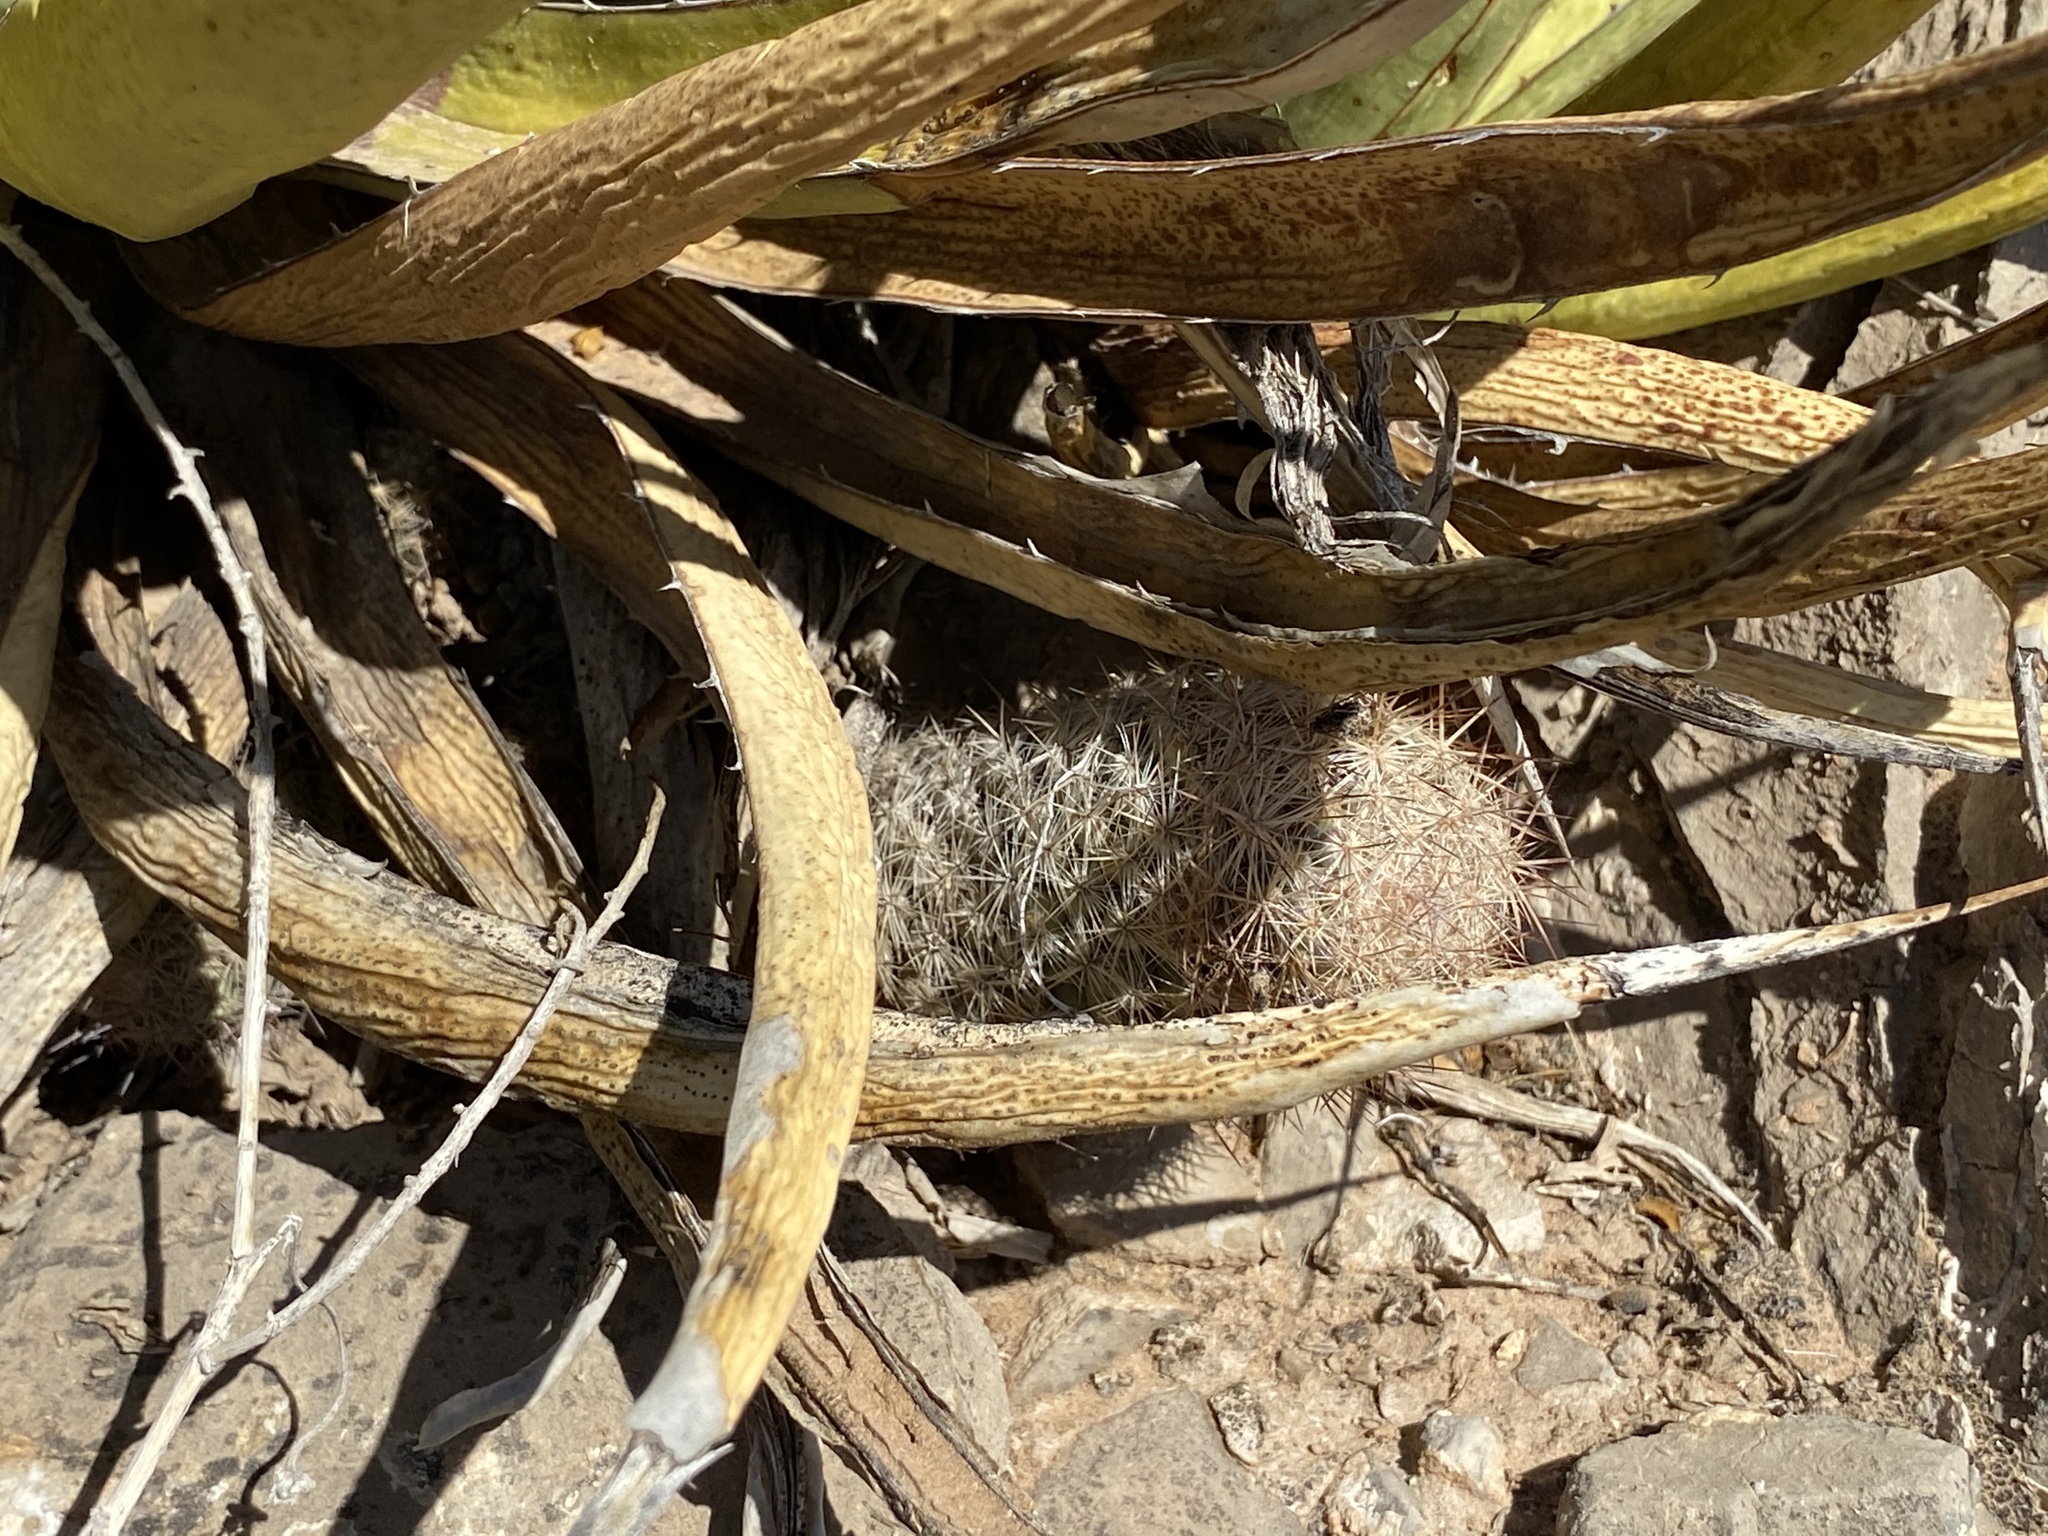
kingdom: Plantae
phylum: Tracheophyta
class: Magnoliopsida
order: Caryophyllales
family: Cactaceae
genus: Pelecyphora
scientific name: Pelecyphora tuberculosa
